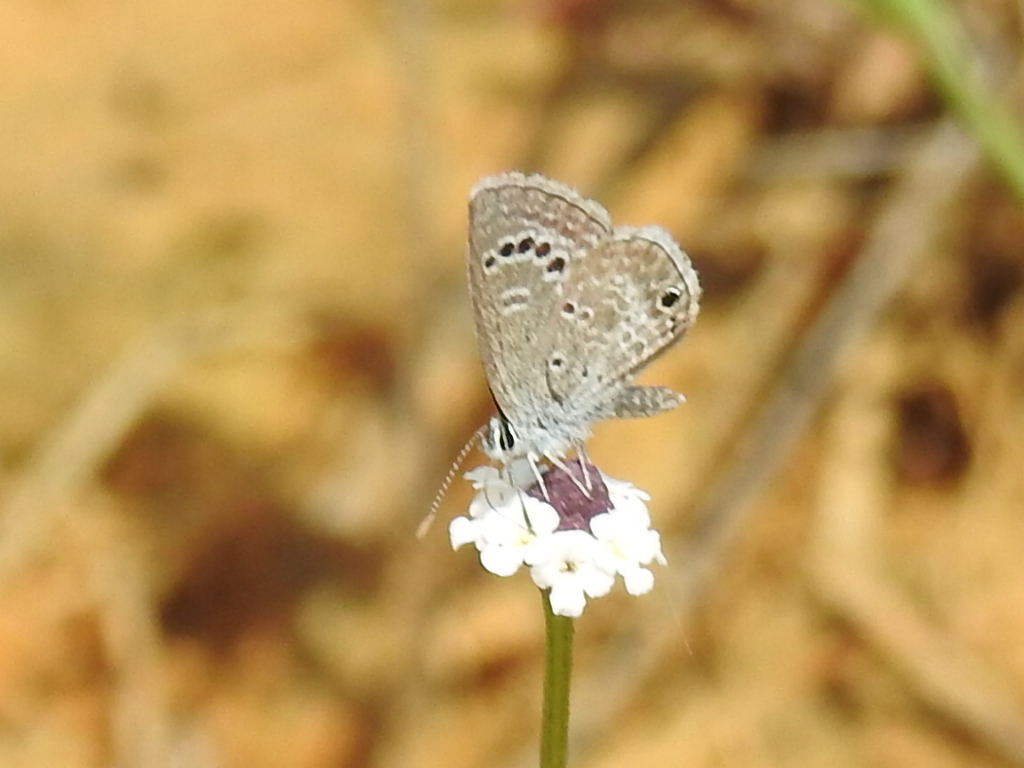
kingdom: Animalia
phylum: Arthropoda
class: Insecta
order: Lepidoptera
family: Lycaenidae
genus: Echinargus
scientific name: Echinargus isola
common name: Reakirt's blue
